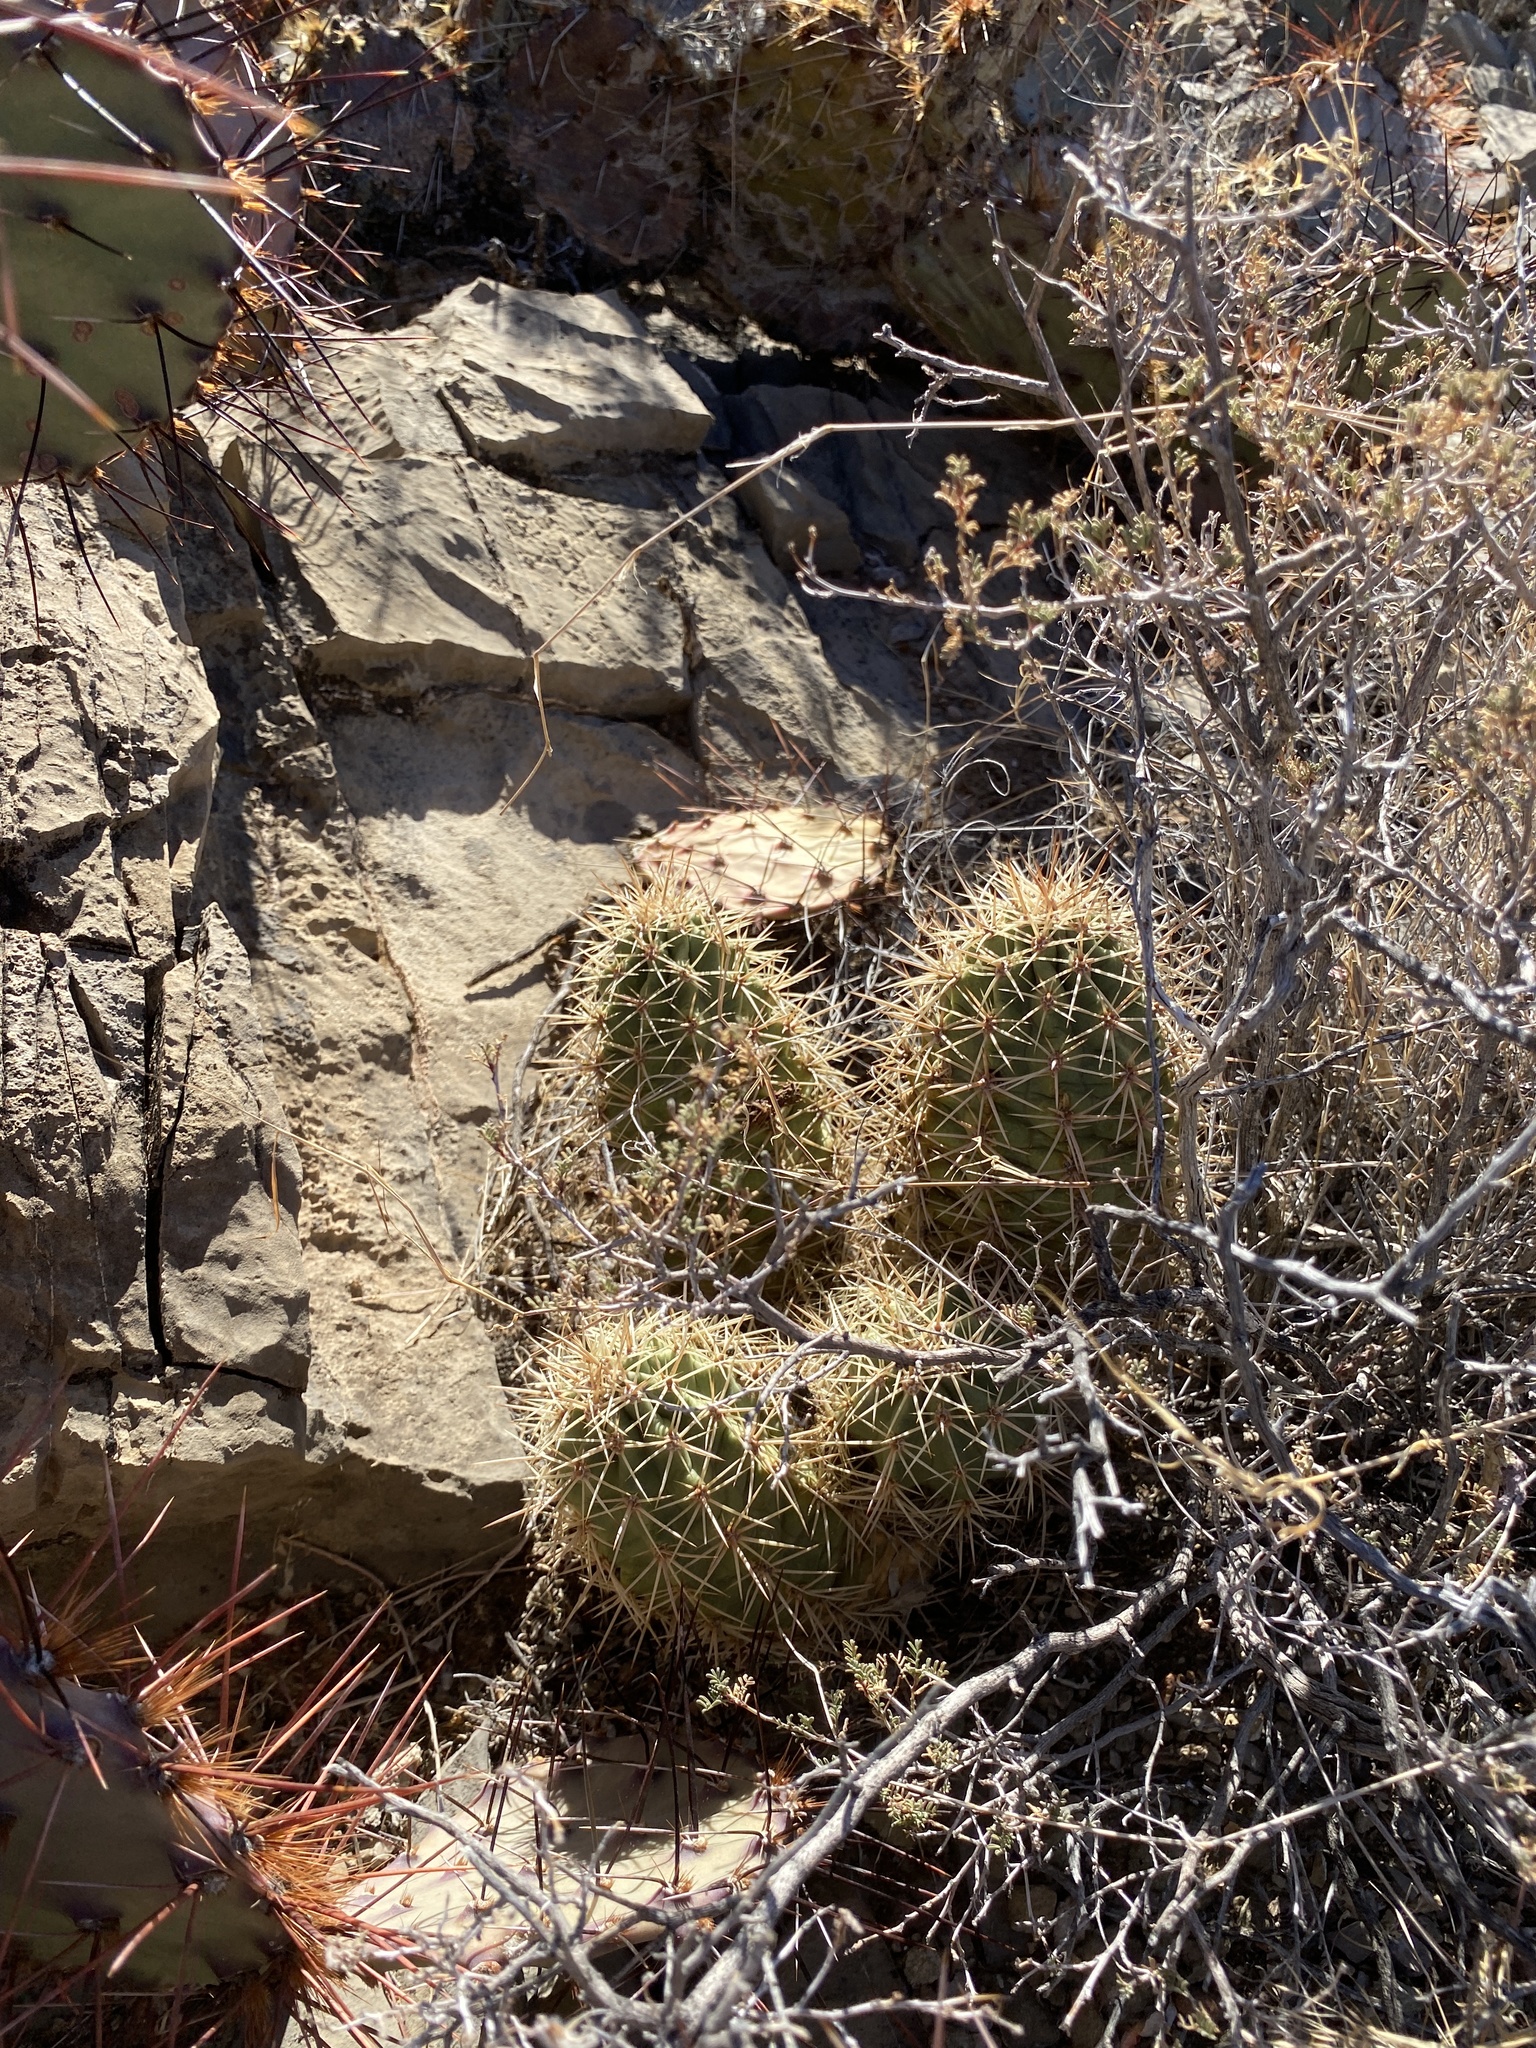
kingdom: Plantae
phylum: Tracheophyta
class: Magnoliopsida
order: Caryophyllales
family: Cactaceae
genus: Echinocereus
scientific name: Echinocereus coccineus
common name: Scarlet hedgehog cactus
